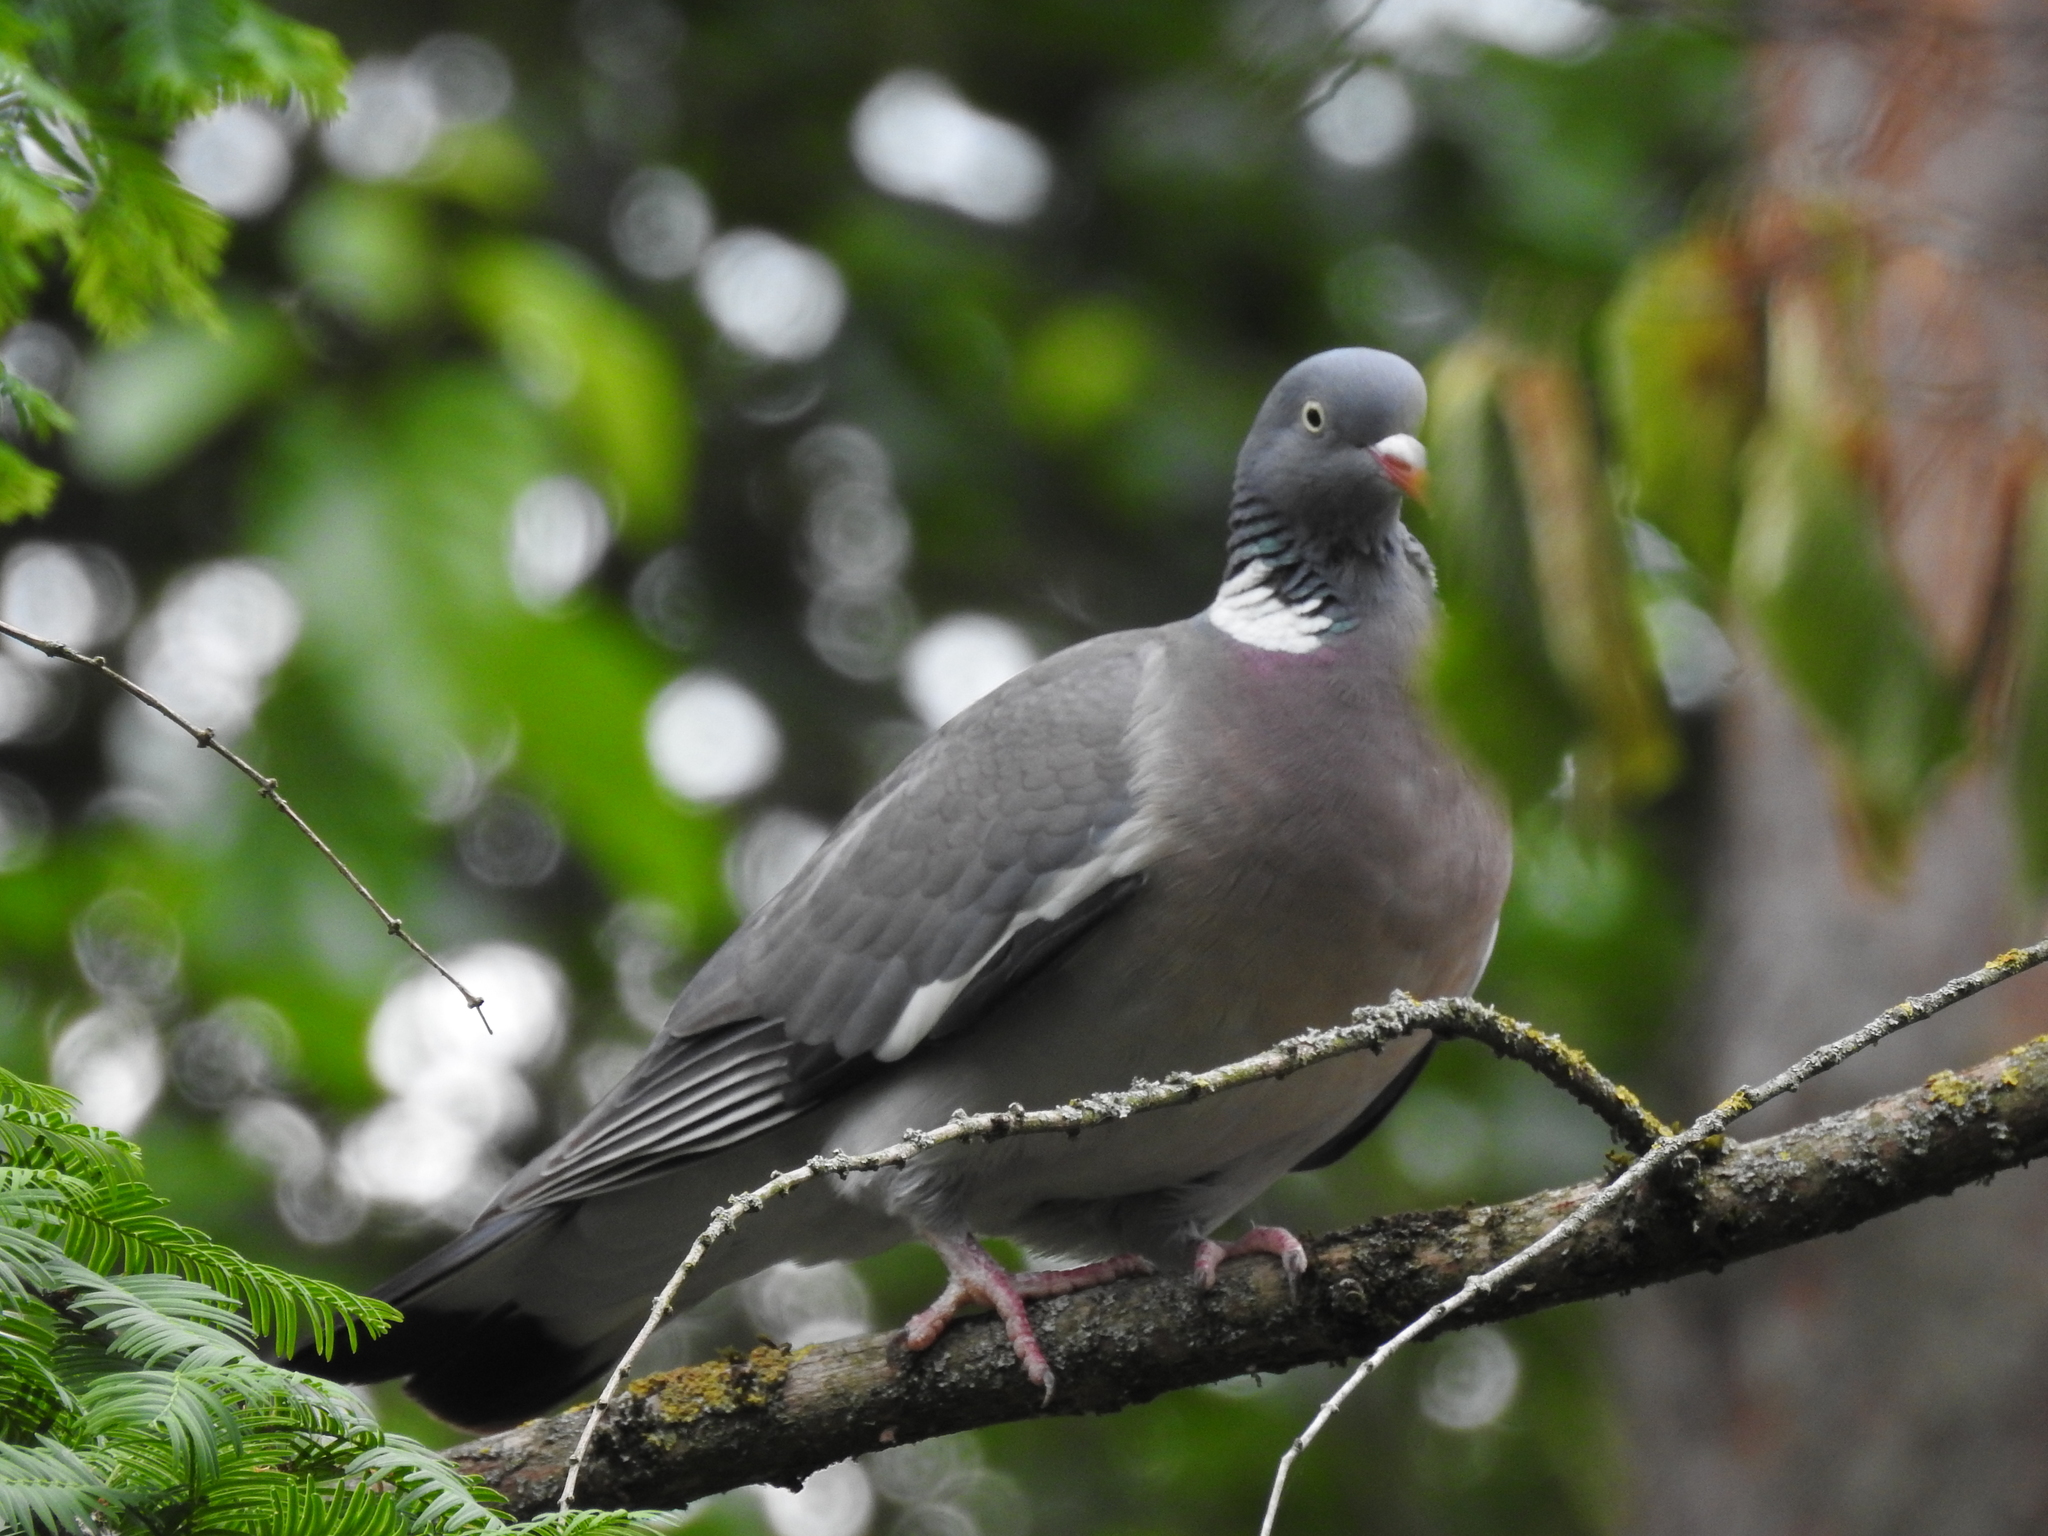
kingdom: Animalia
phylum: Chordata
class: Aves
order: Columbiformes
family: Columbidae
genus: Columba
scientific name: Columba palumbus
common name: Common wood pigeon
